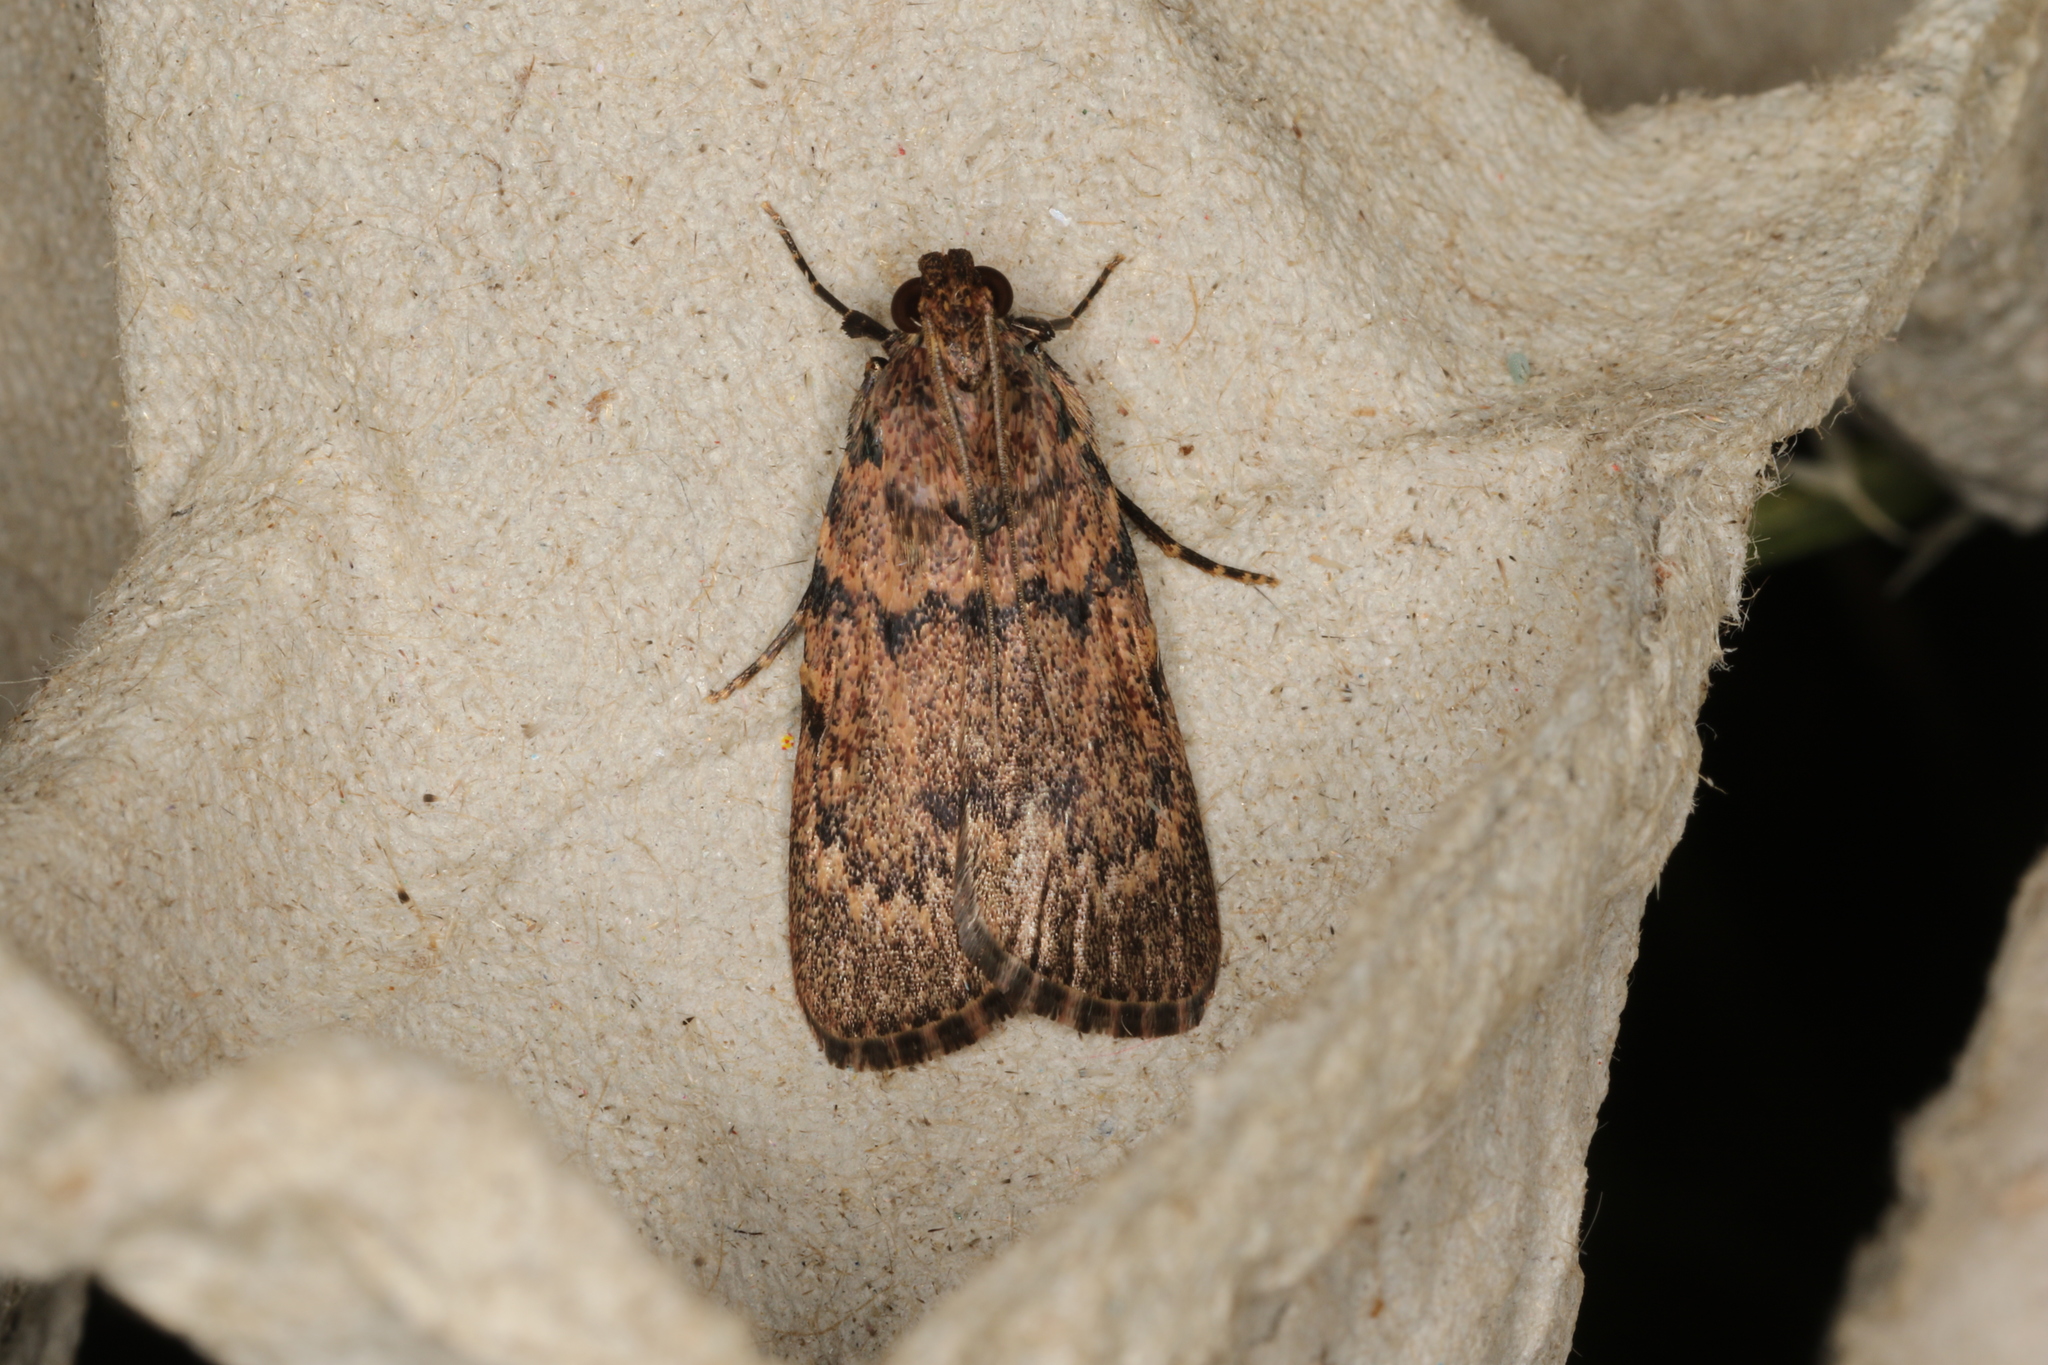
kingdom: Animalia
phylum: Arthropoda
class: Insecta
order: Lepidoptera
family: Pyralidae
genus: Mimaglossa
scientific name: Mimaglossa nauplialis
